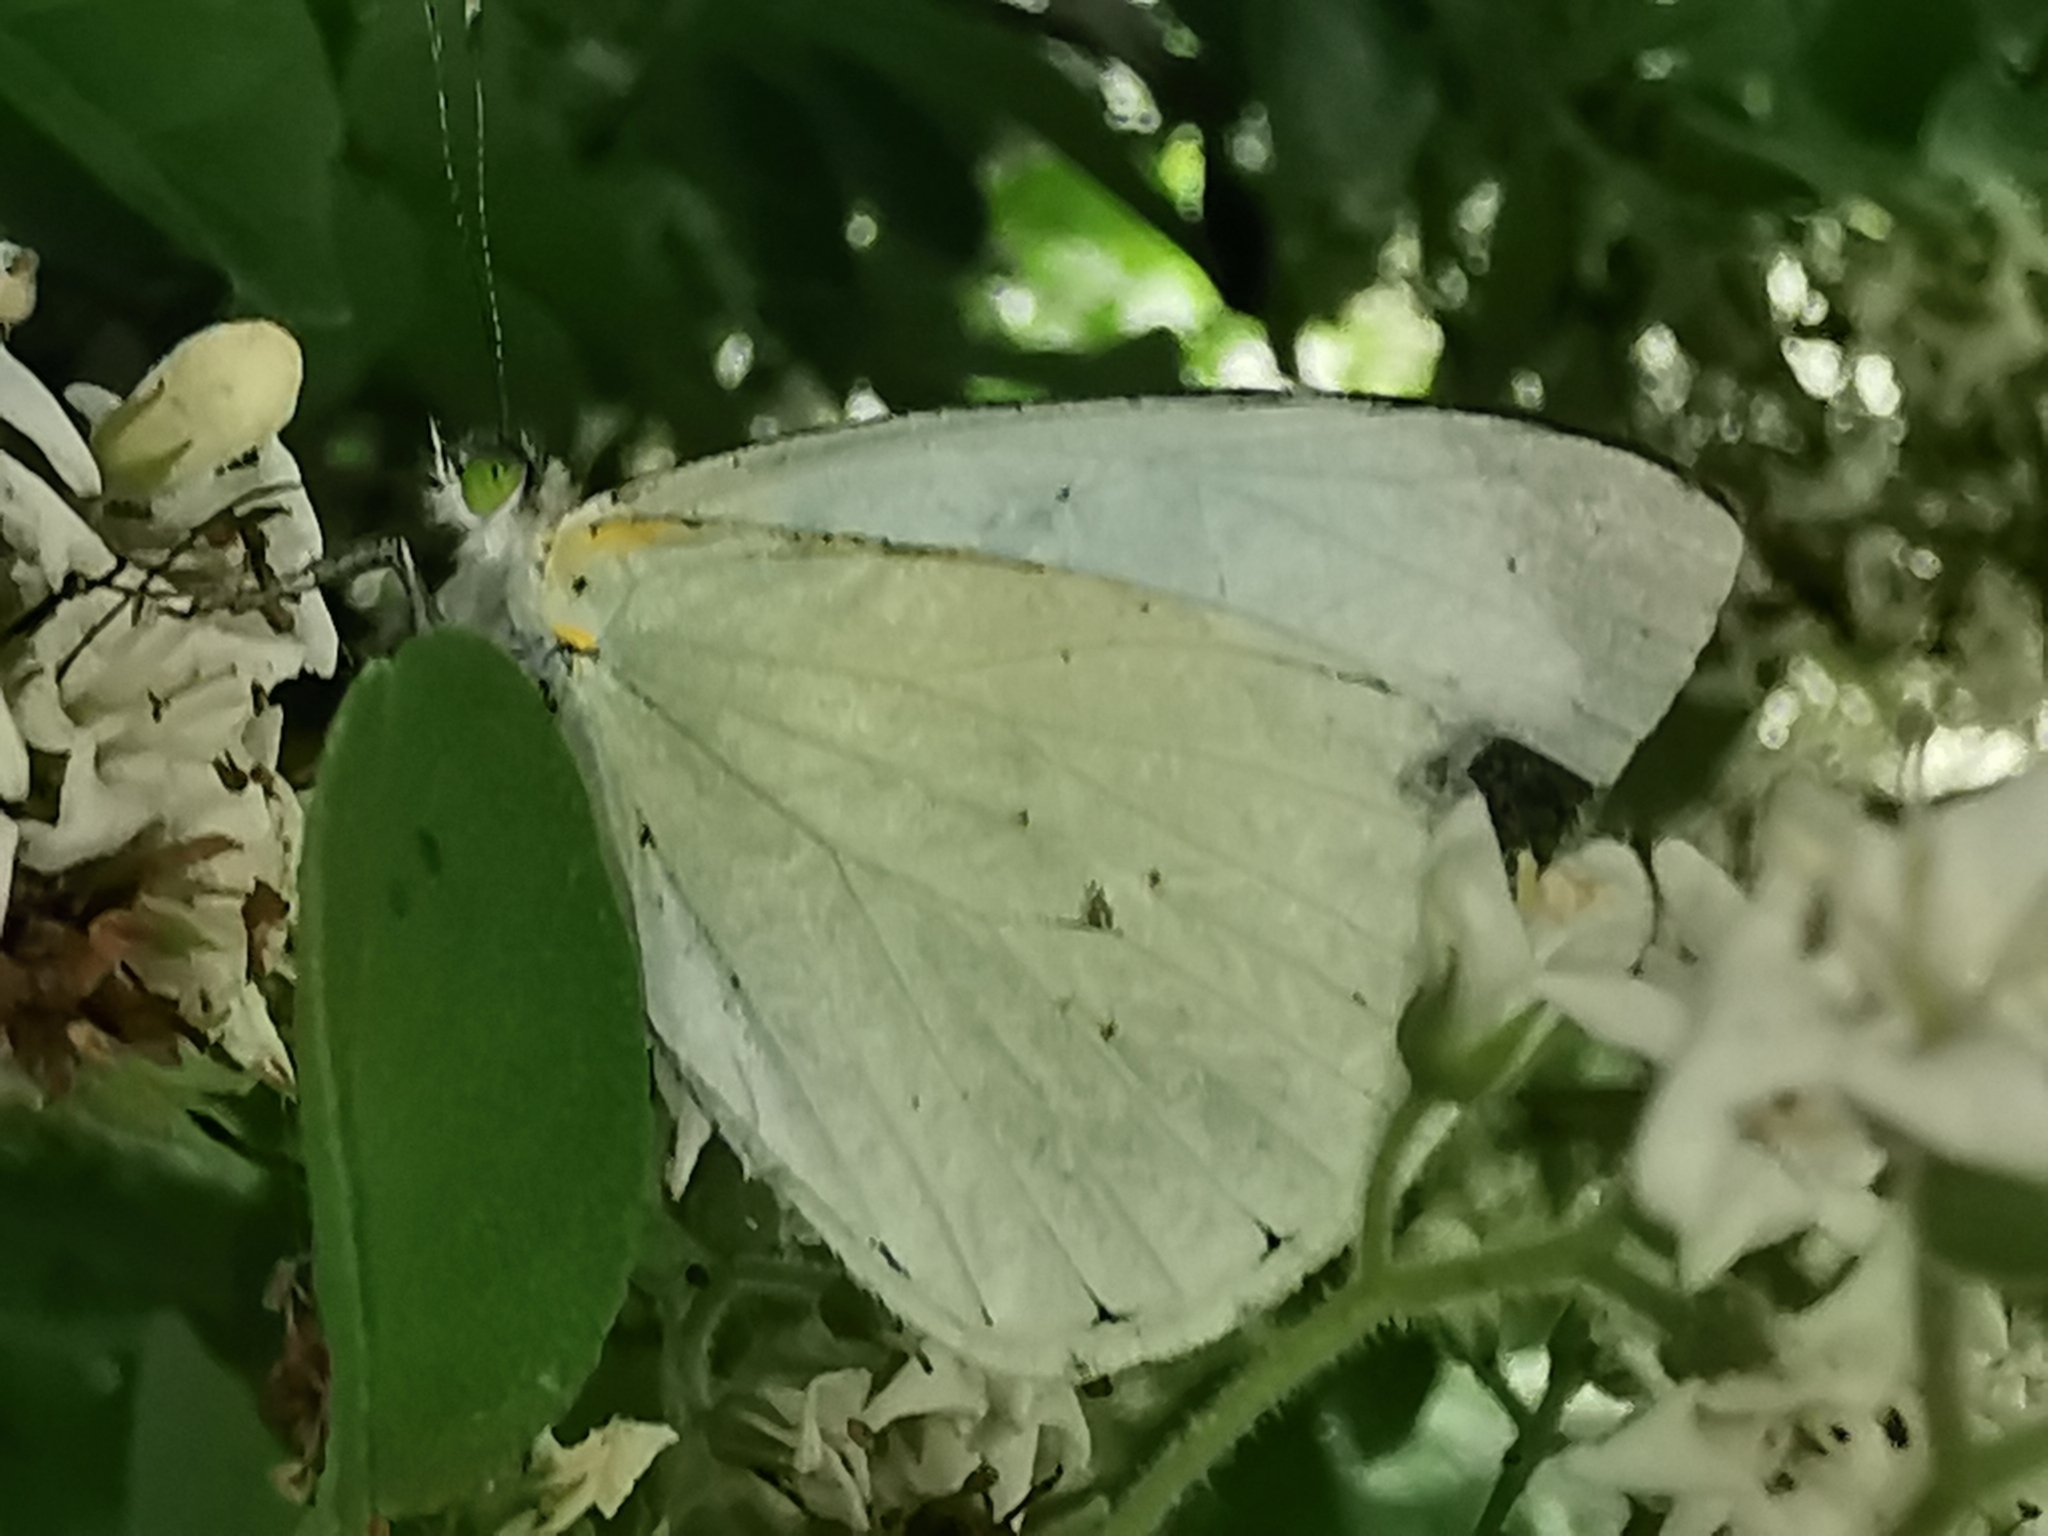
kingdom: Animalia
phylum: Arthropoda
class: Insecta
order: Lepidoptera
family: Pieridae
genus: Leptophobia
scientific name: Leptophobia aripa
